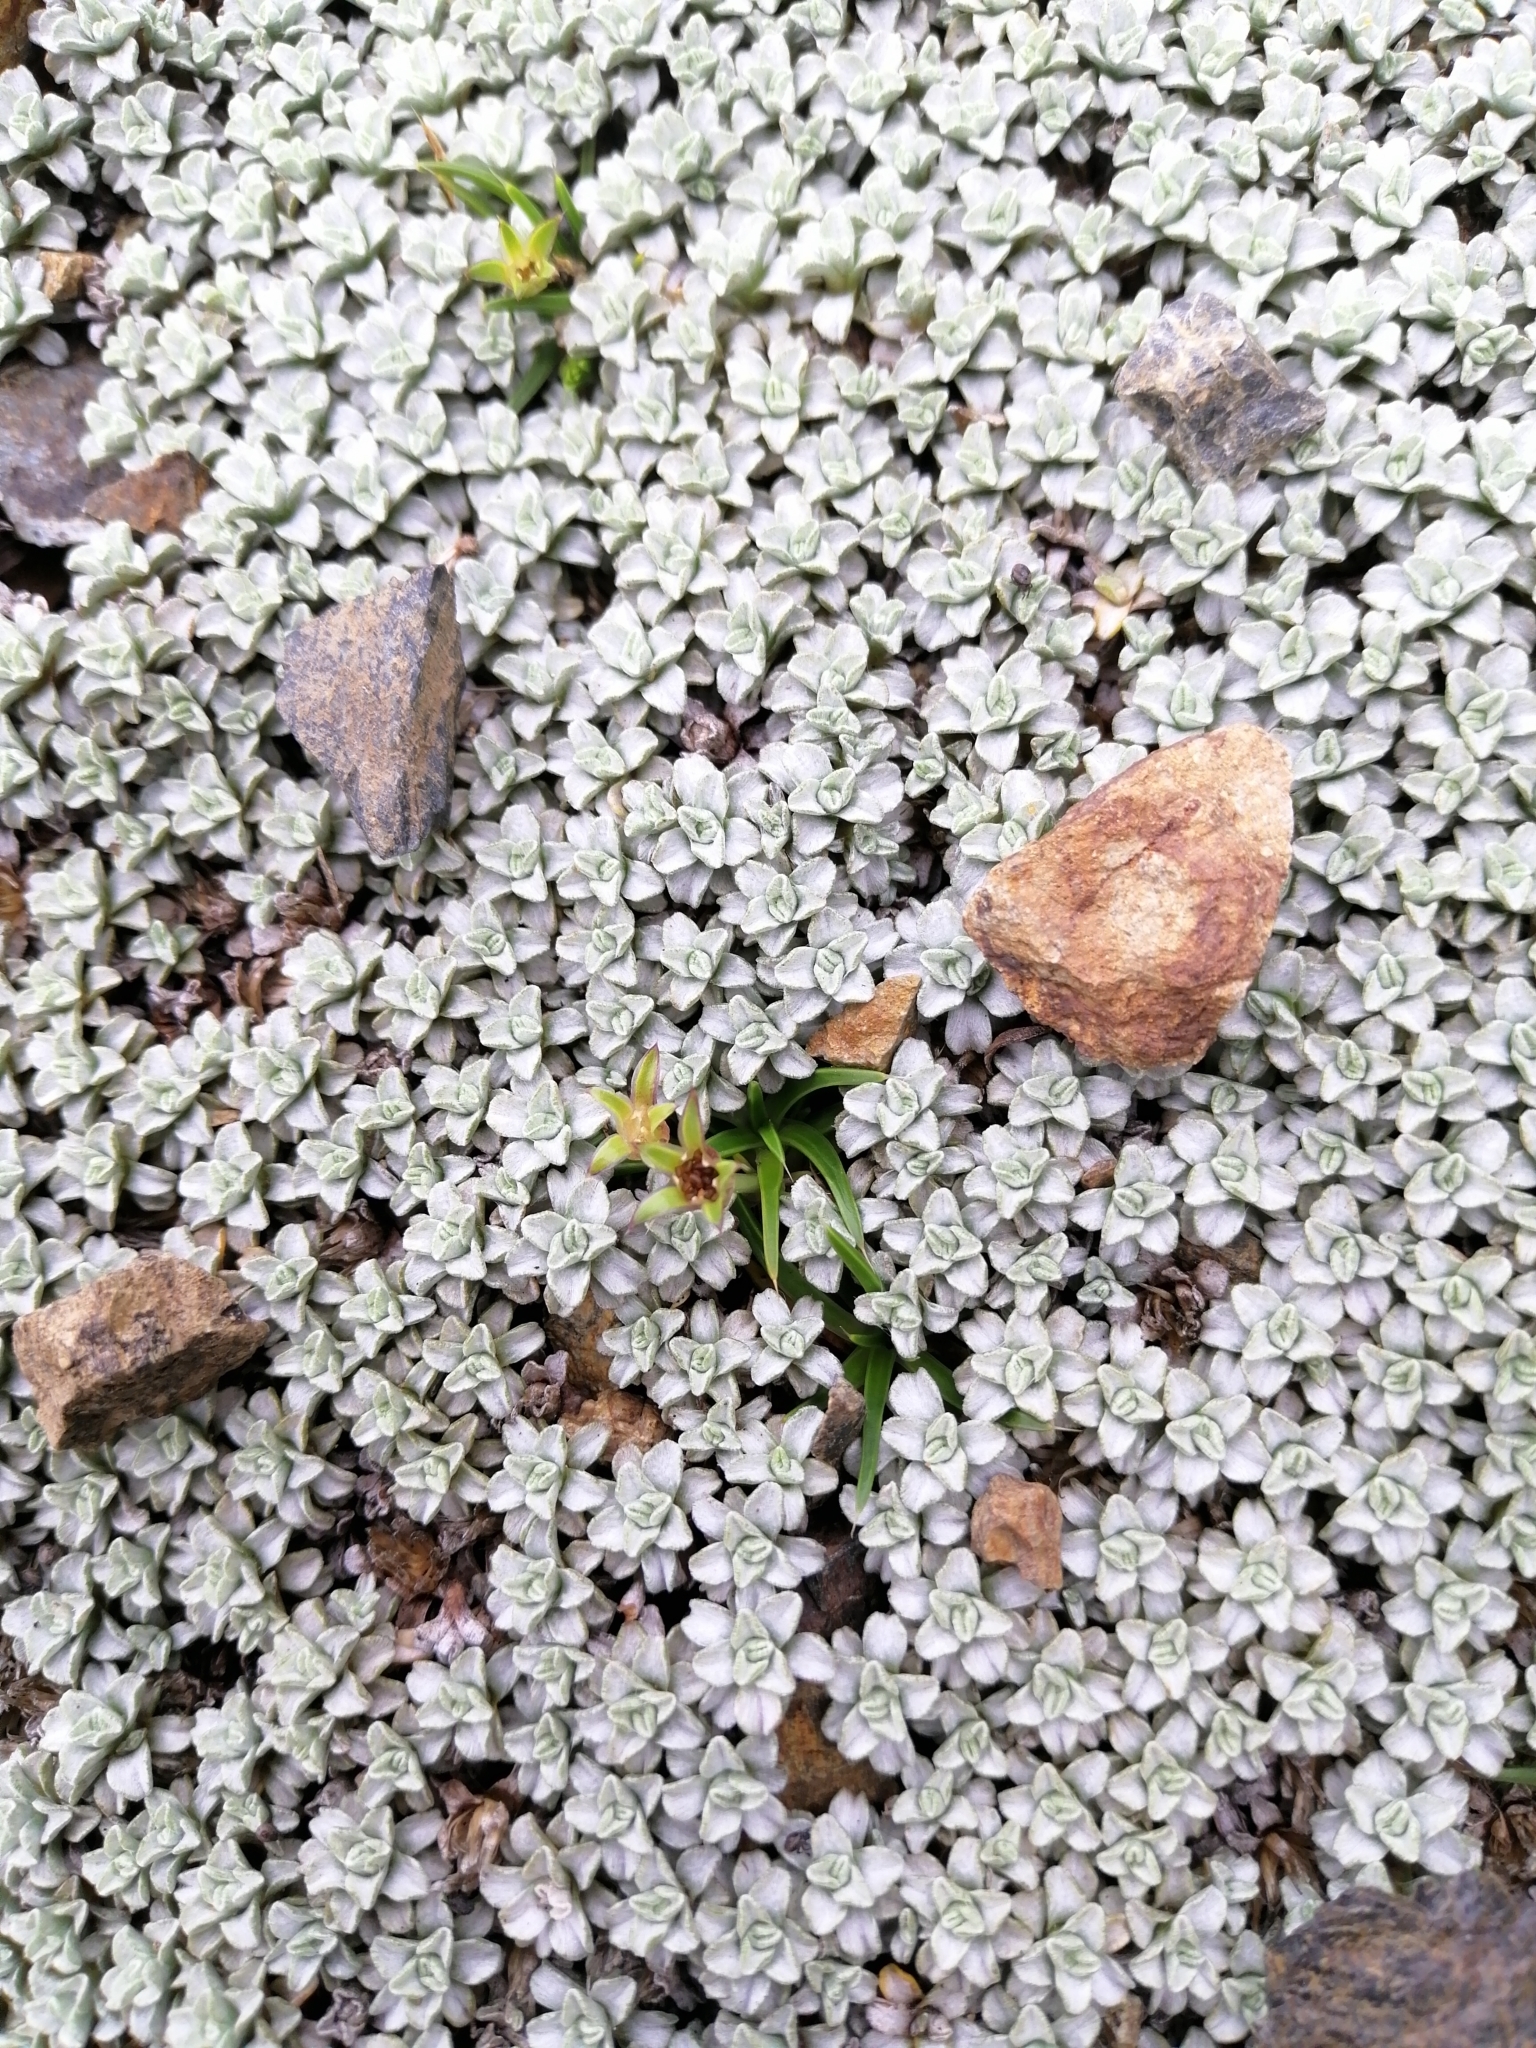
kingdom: Plantae
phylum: Tracheophyta
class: Magnoliopsida
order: Caryophyllales
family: Caryophyllaceae
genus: Colobanthus
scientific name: Colobanthus muelleri
